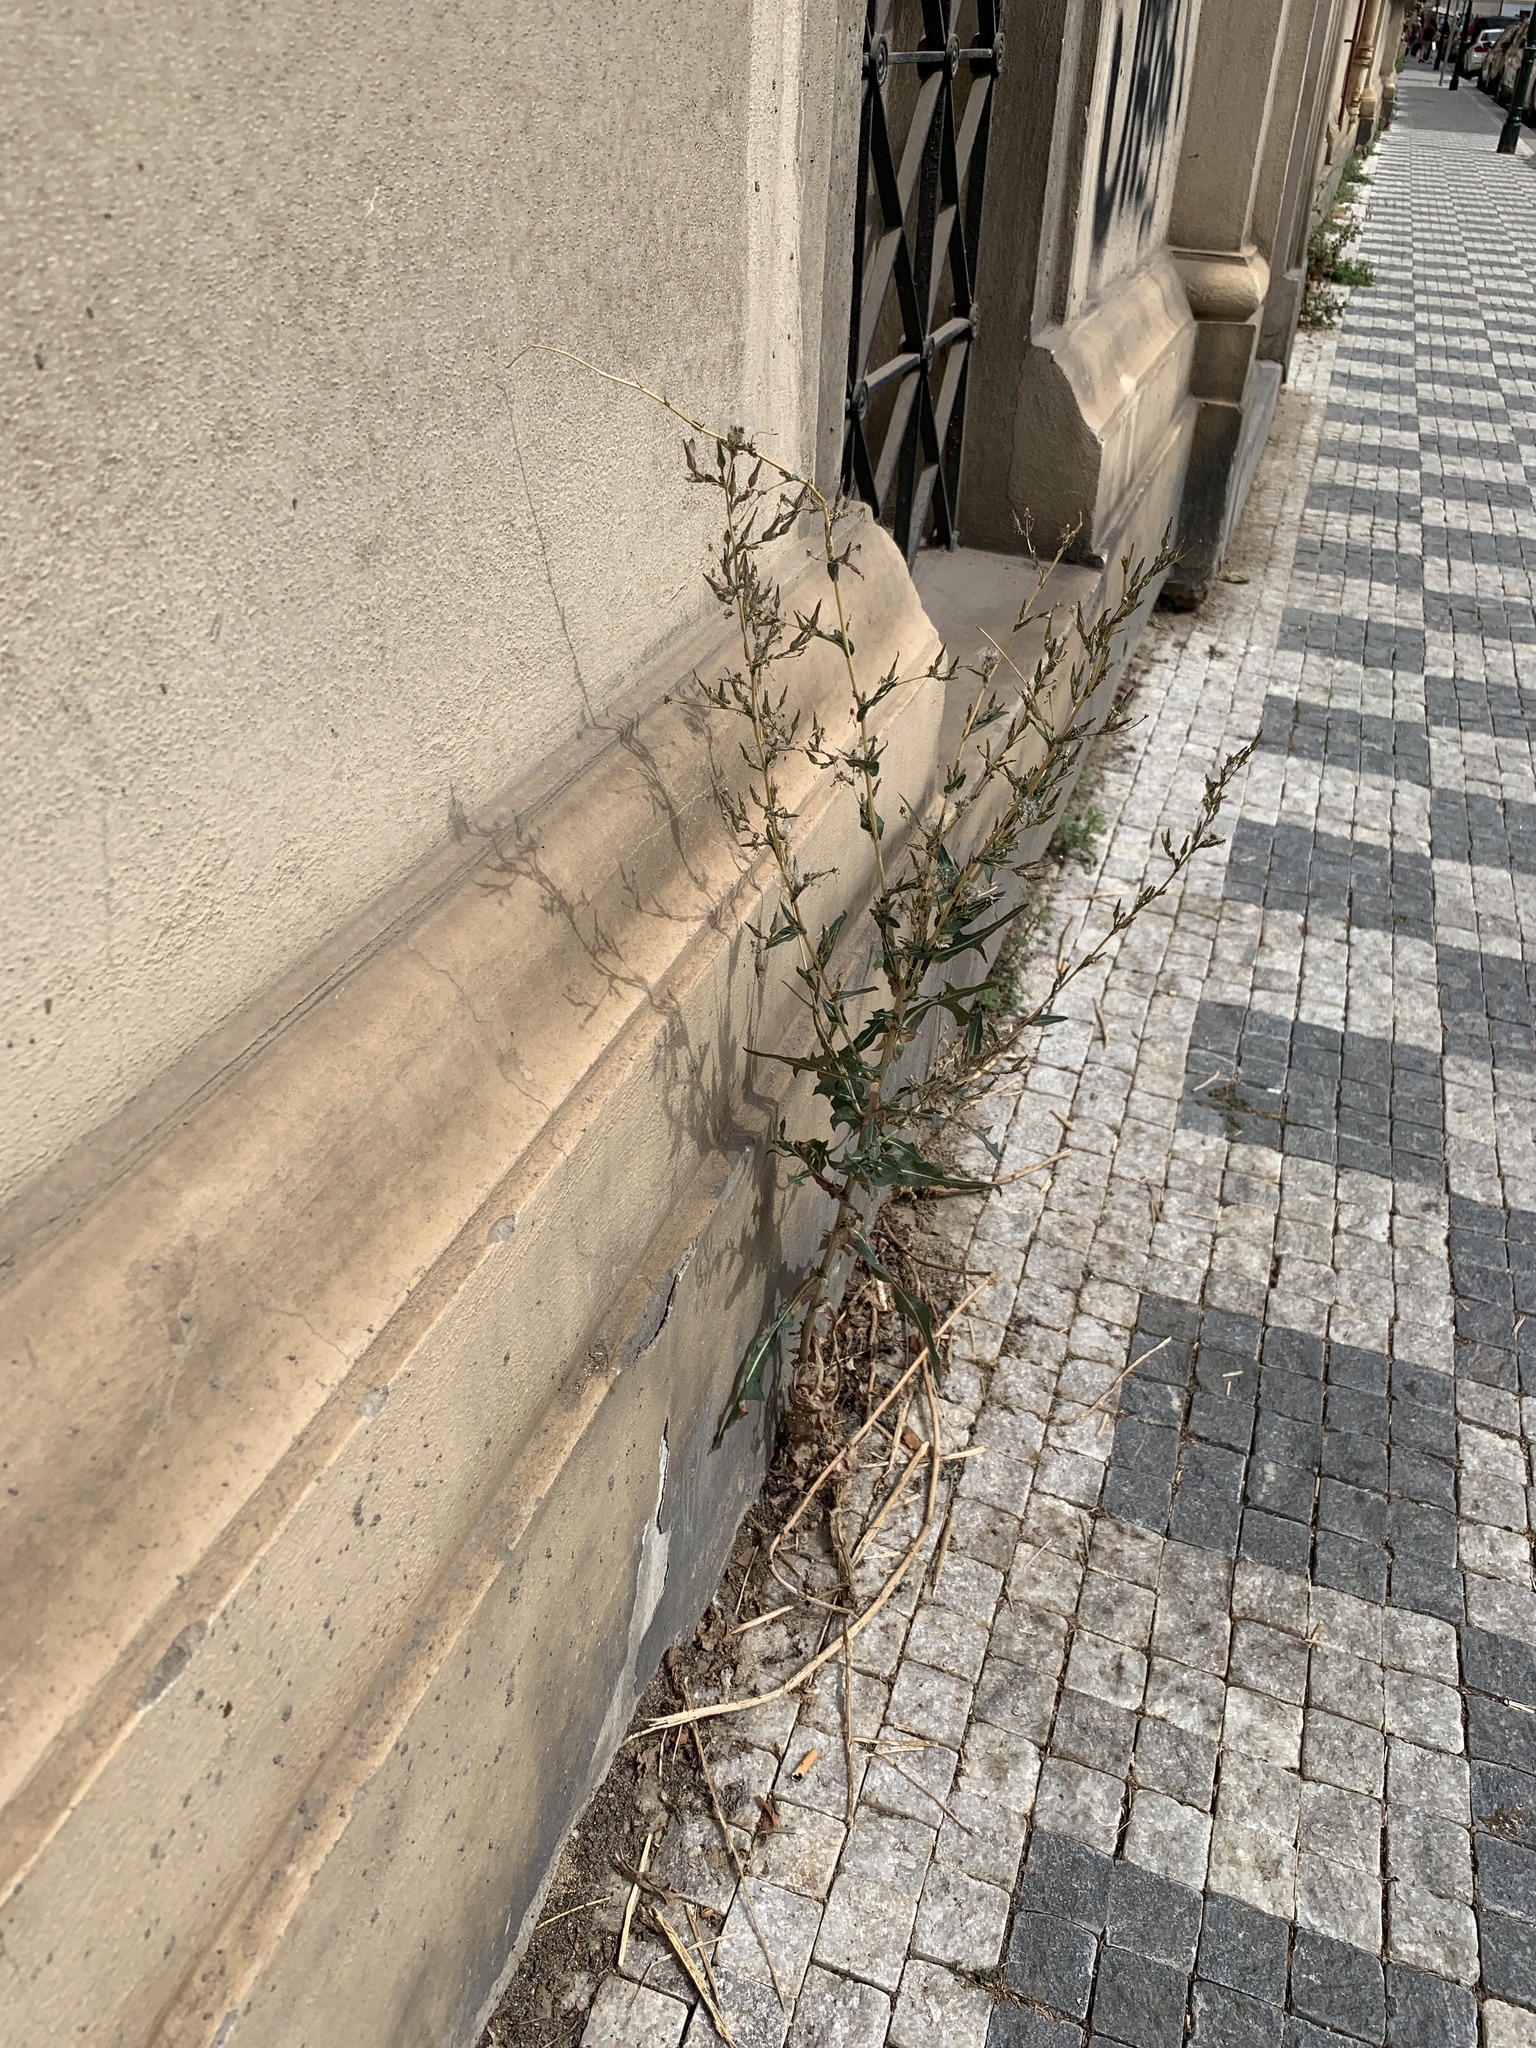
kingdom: Plantae
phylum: Tracheophyta
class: Magnoliopsida
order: Asterales
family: Asteraceae
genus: Lactuca
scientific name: Lactuca serriola
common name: Prickly lettuce
